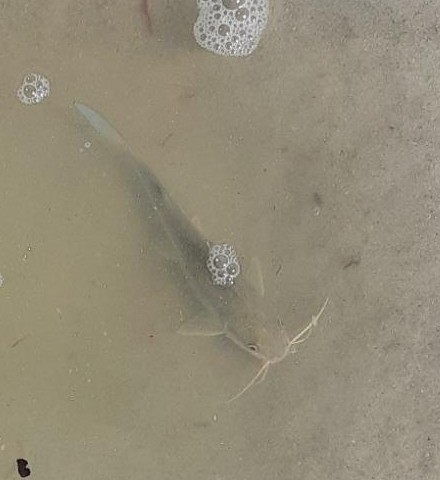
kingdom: Animalia
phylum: Chordata
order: Siluriformes
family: Ariidae
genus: Ariopsis
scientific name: Ariopsis felis
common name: Hardhead catfish
